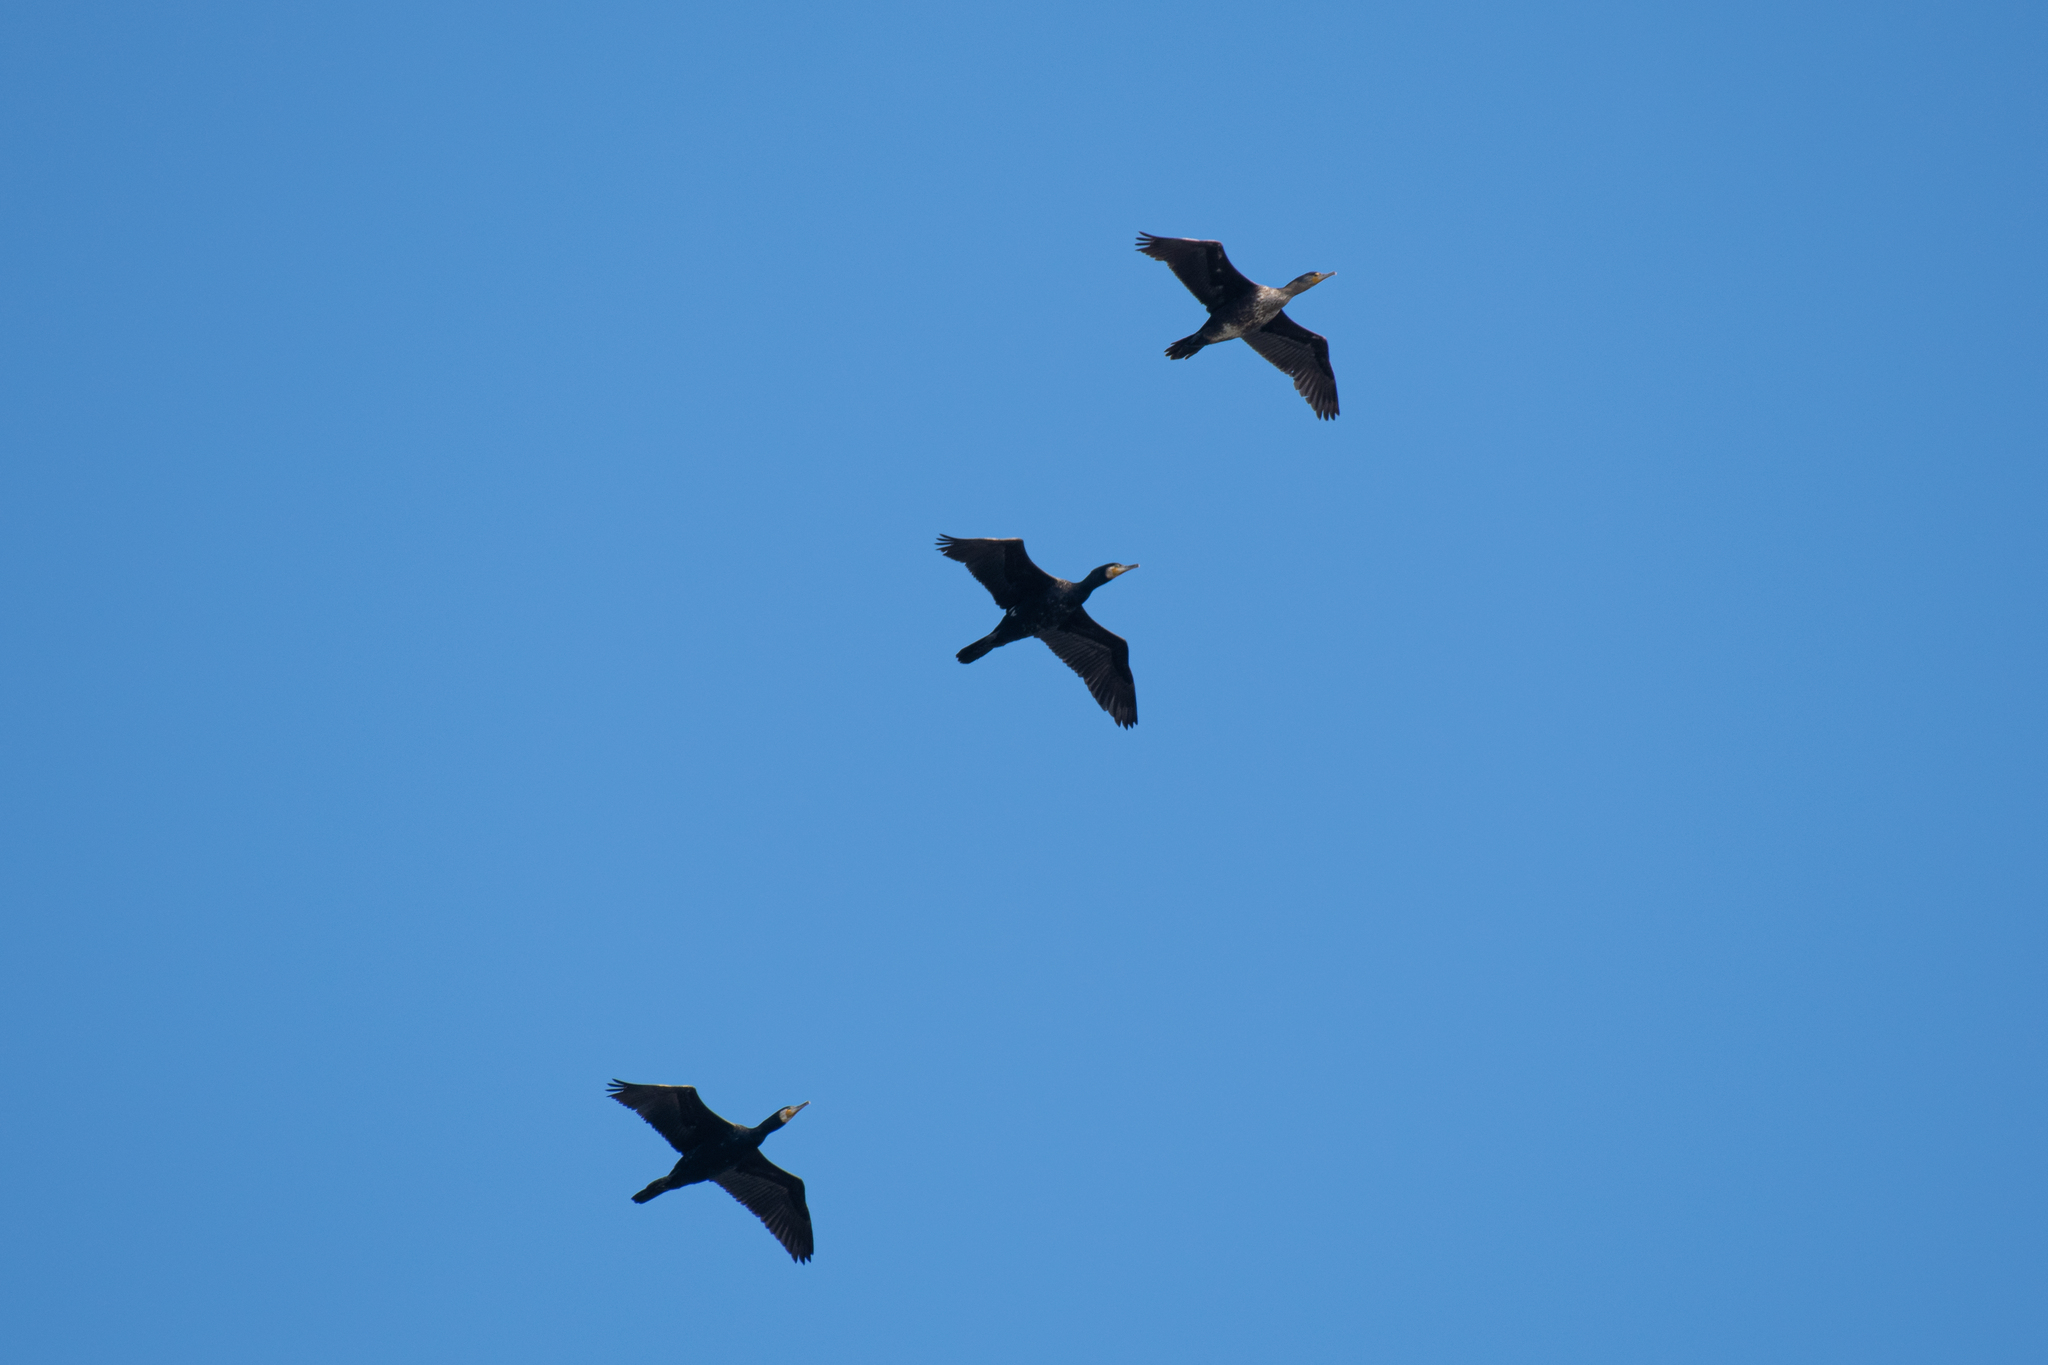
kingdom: Animalia
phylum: Chordata
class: Aves
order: Suliformes
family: Phalacrocoracidae
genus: Phalacrocorax
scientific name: Phalacrocorax carbo
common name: Great cormorant
